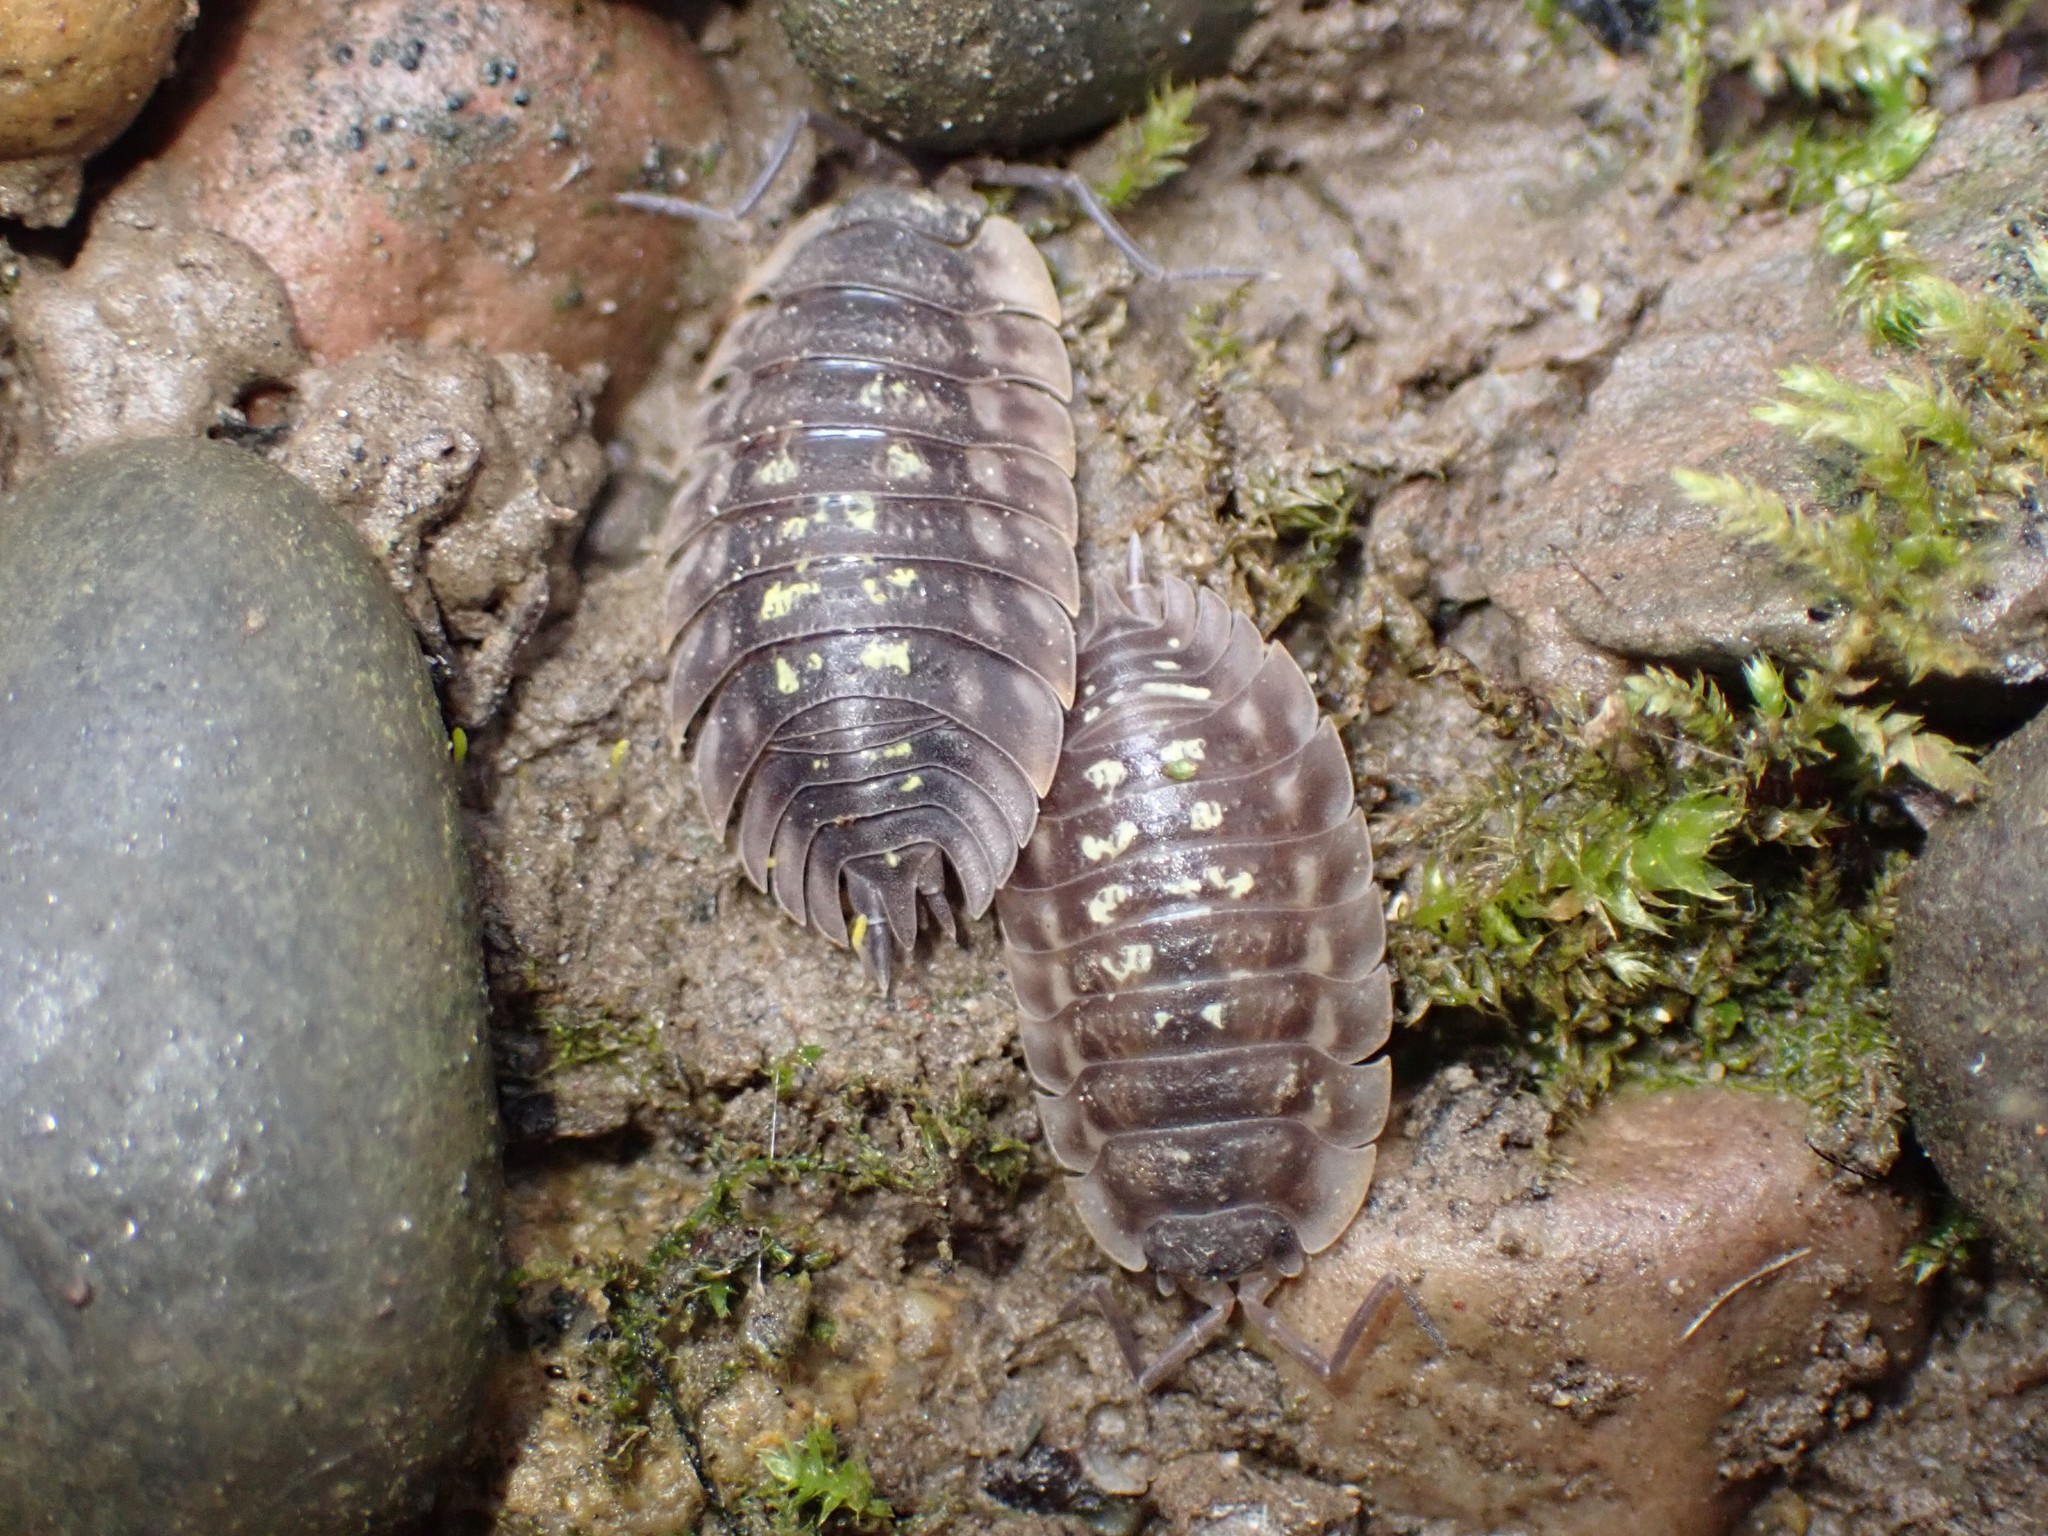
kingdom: Animalia
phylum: Arthropoda
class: Malacostraca
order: Isopoda
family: Oniscidae
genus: Oniscus
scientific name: Oniscus asellus
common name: Common shiny woodlouse
